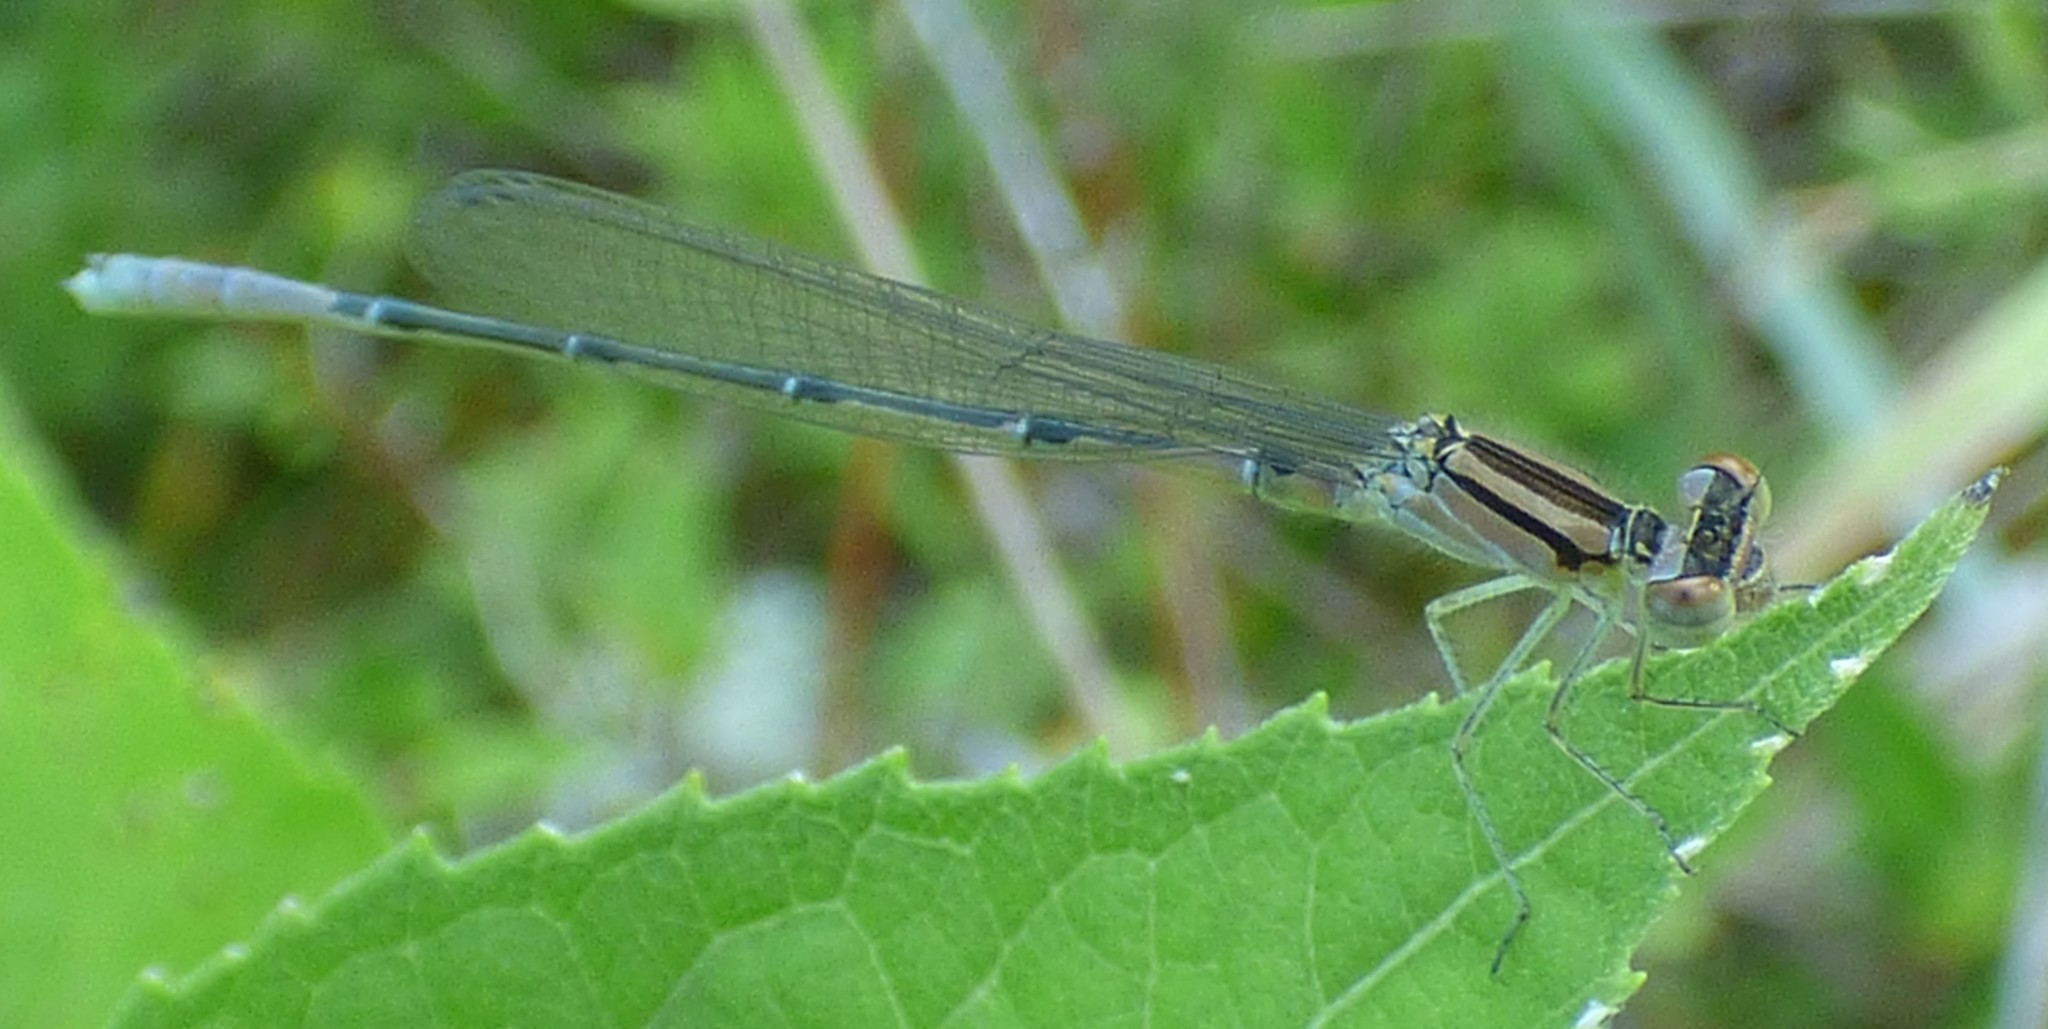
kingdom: Animalia
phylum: Arthropoda
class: Insecta
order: Odonata
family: Coenagrionidae
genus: Enallagma
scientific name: Enallagma aspersum
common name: Azure bluet
